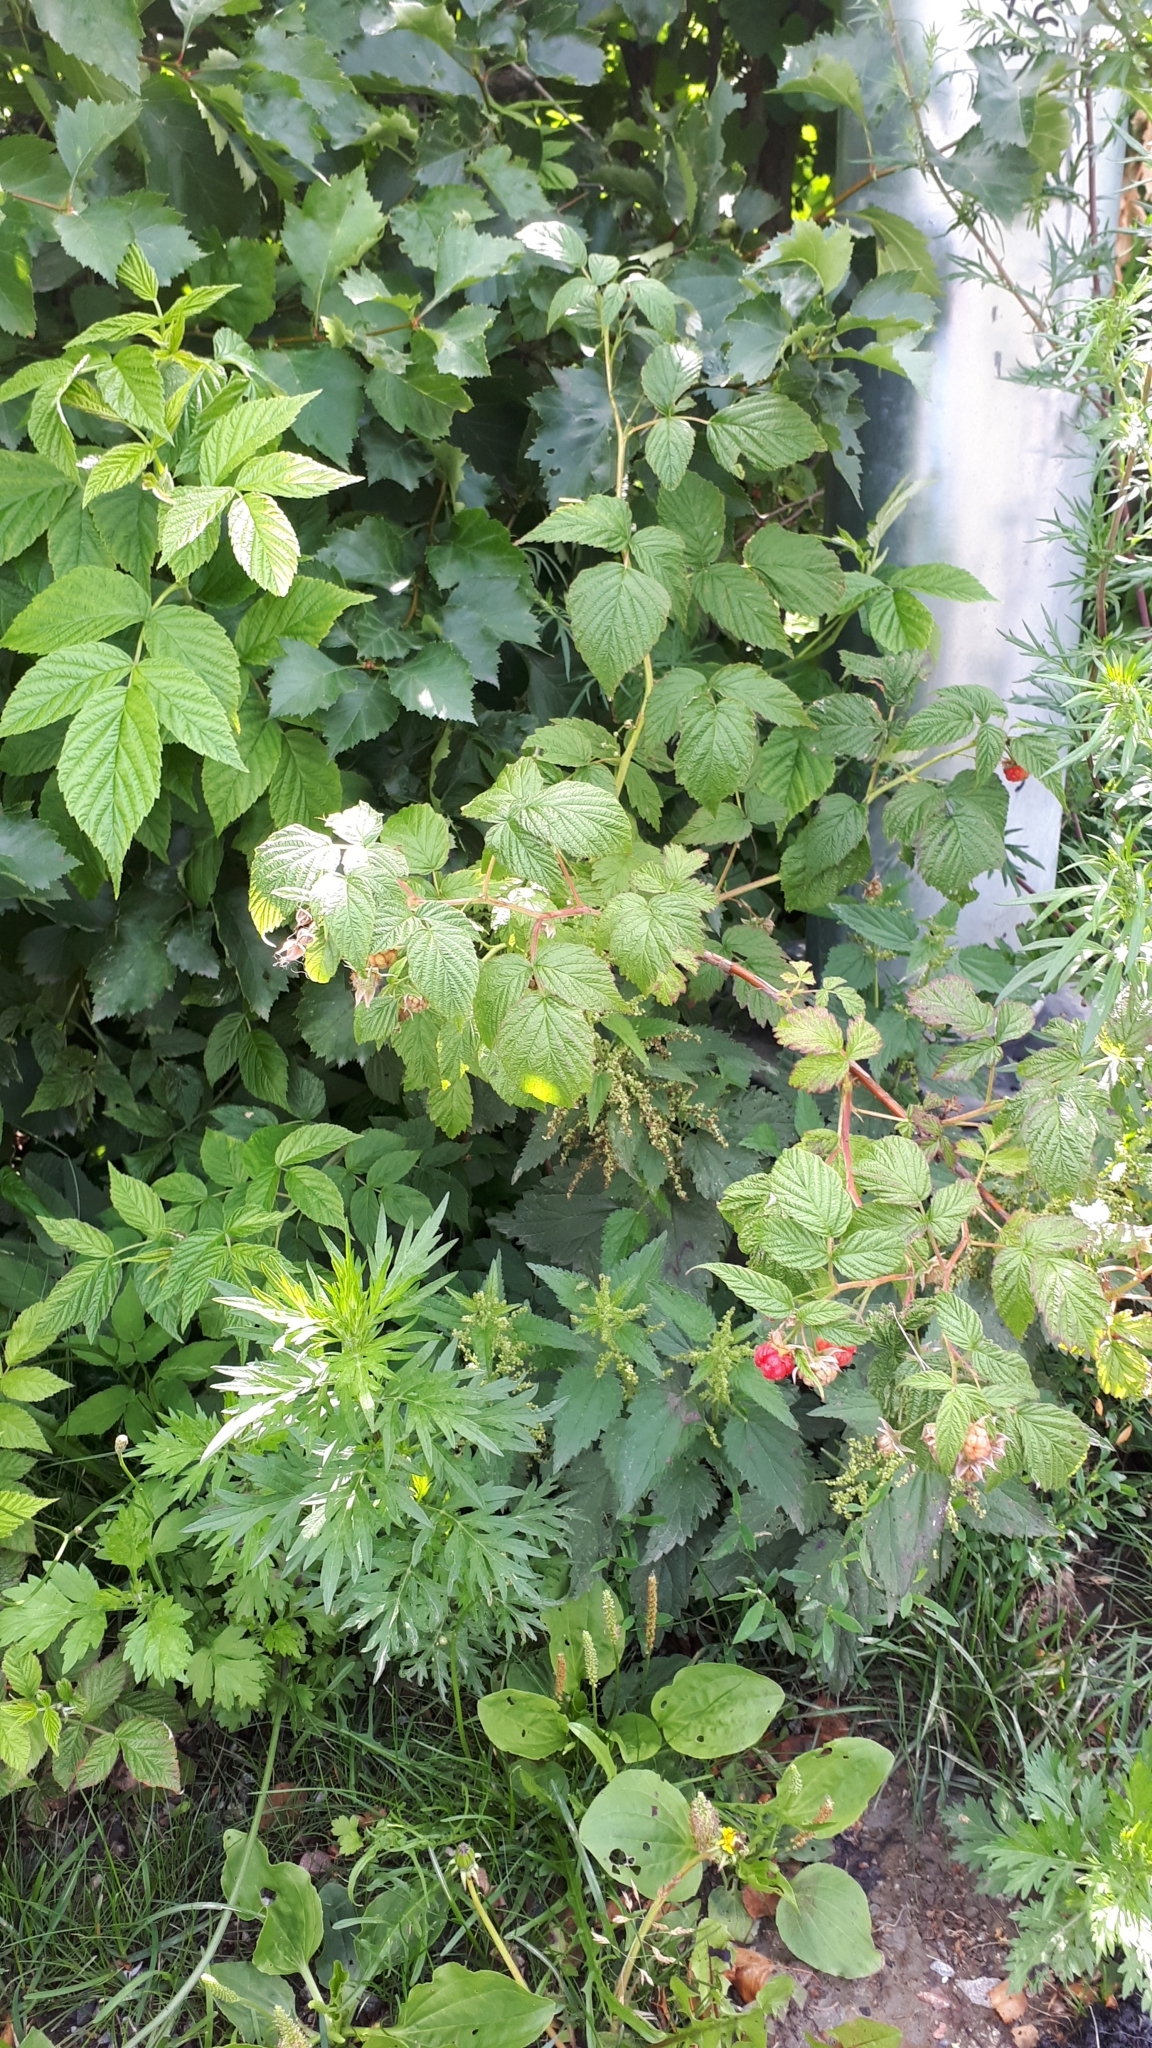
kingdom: Plantae
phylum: Tracheophyta
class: Magnoliopsida
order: Rosales
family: Rosaceae
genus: Rubus
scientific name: Rubus idaeus
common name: Raspberry
